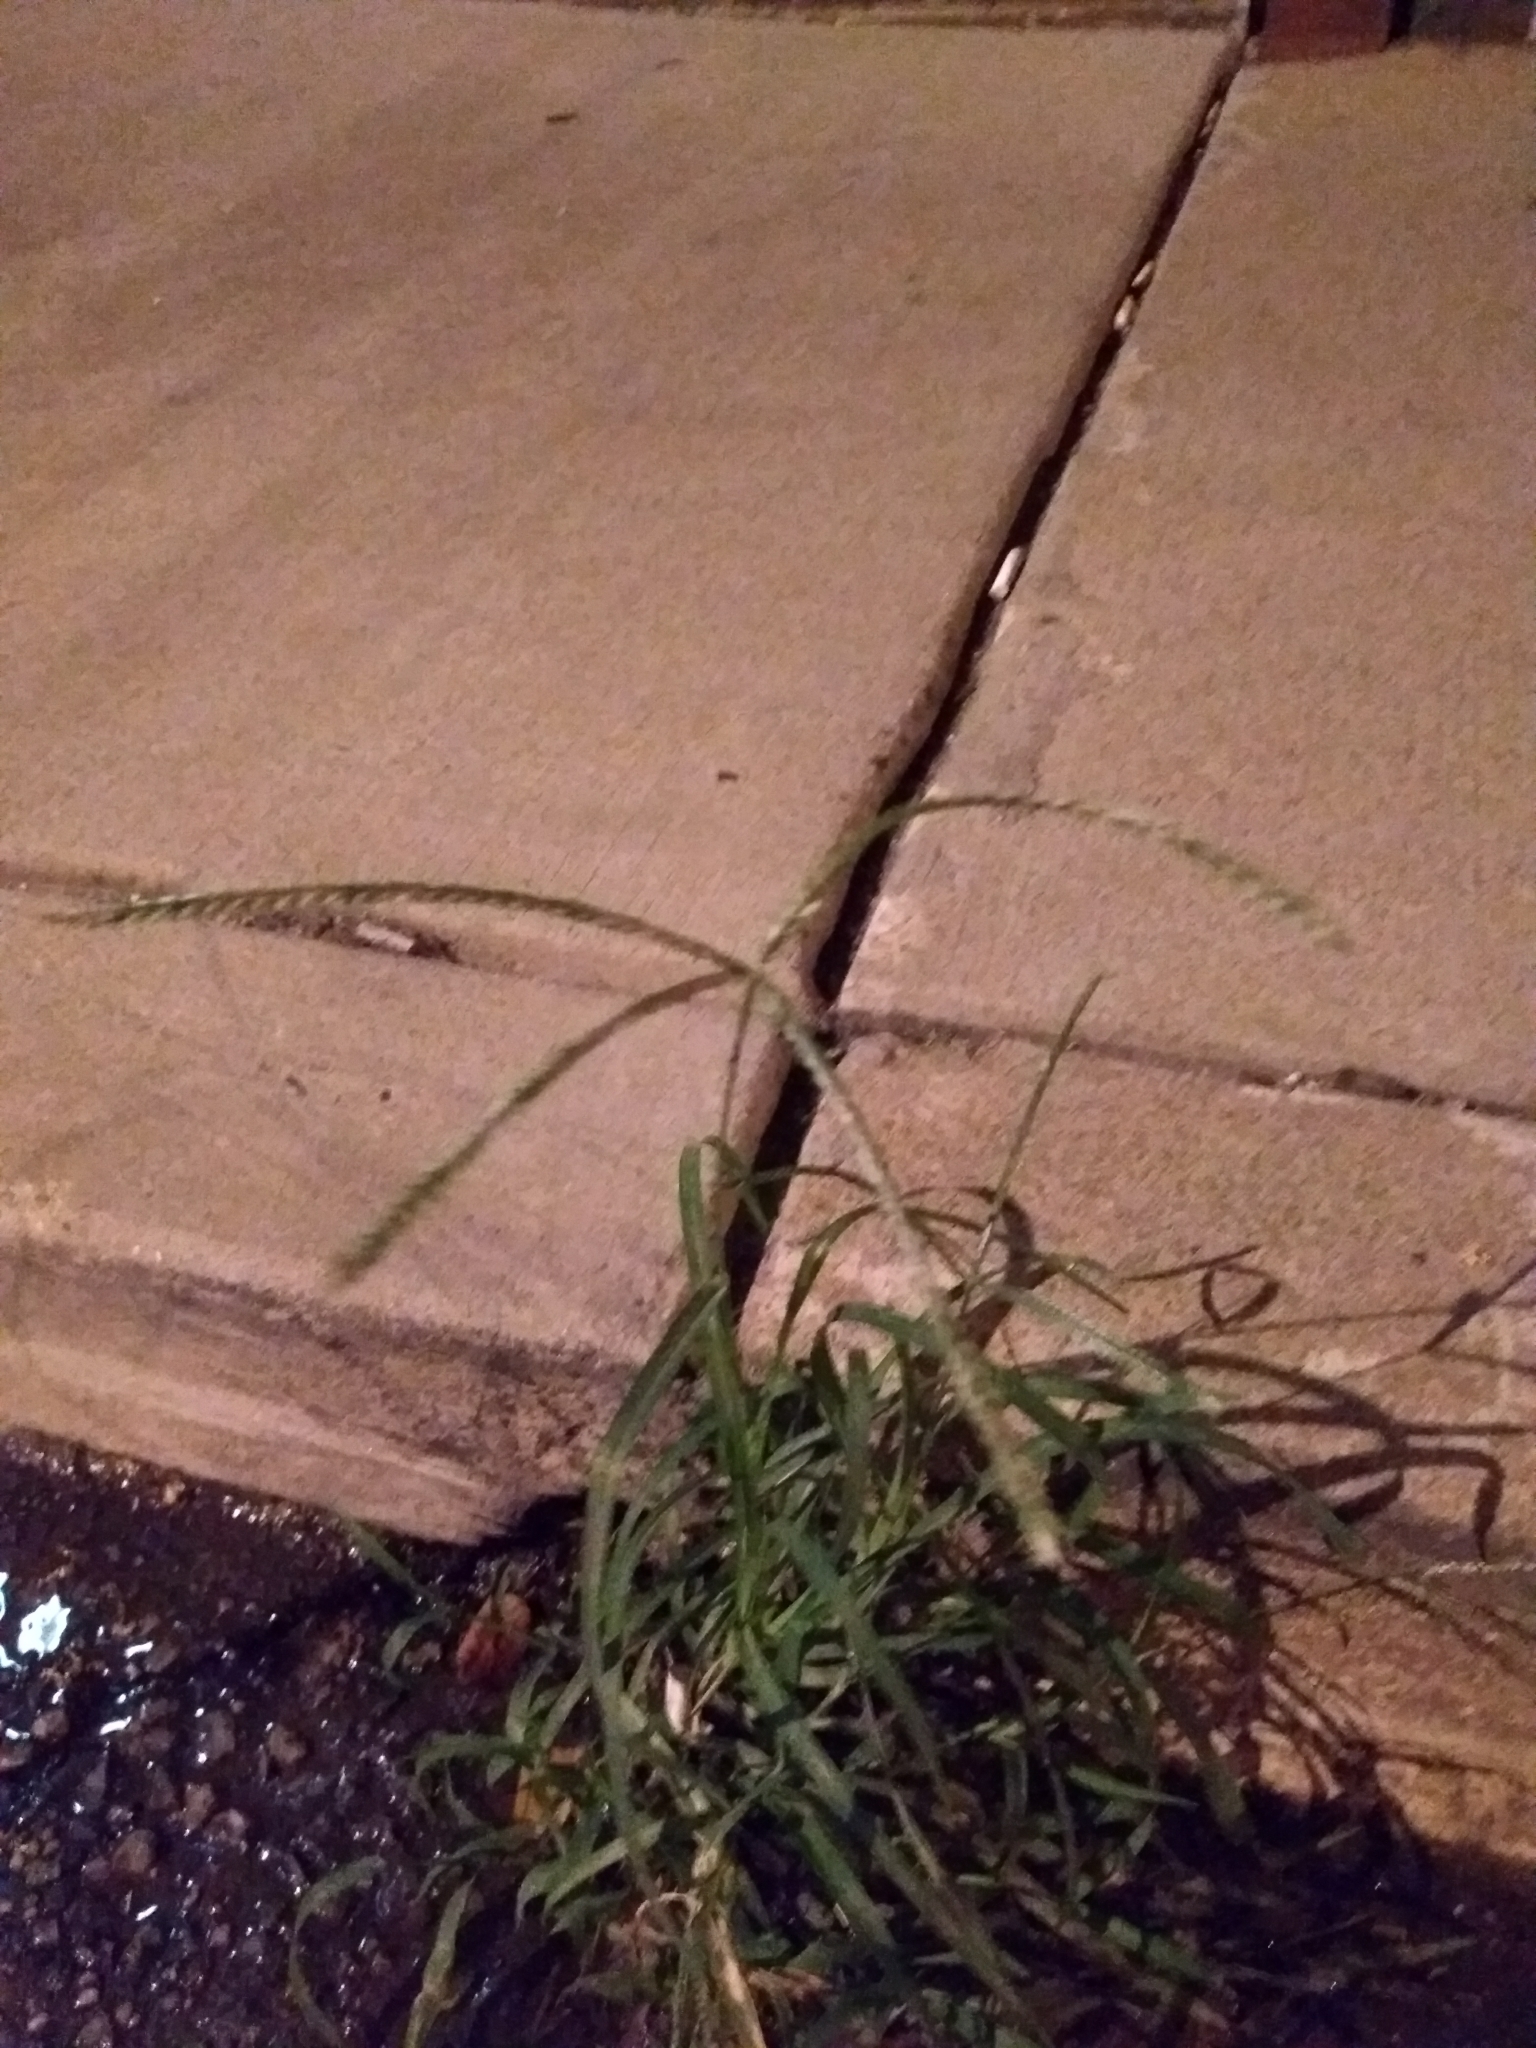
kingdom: Plantae
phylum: Tracheophyta
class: Liliopsida
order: Poales
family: Poaceae
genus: Eleusine
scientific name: Eleusine indica
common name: Yard-grass
